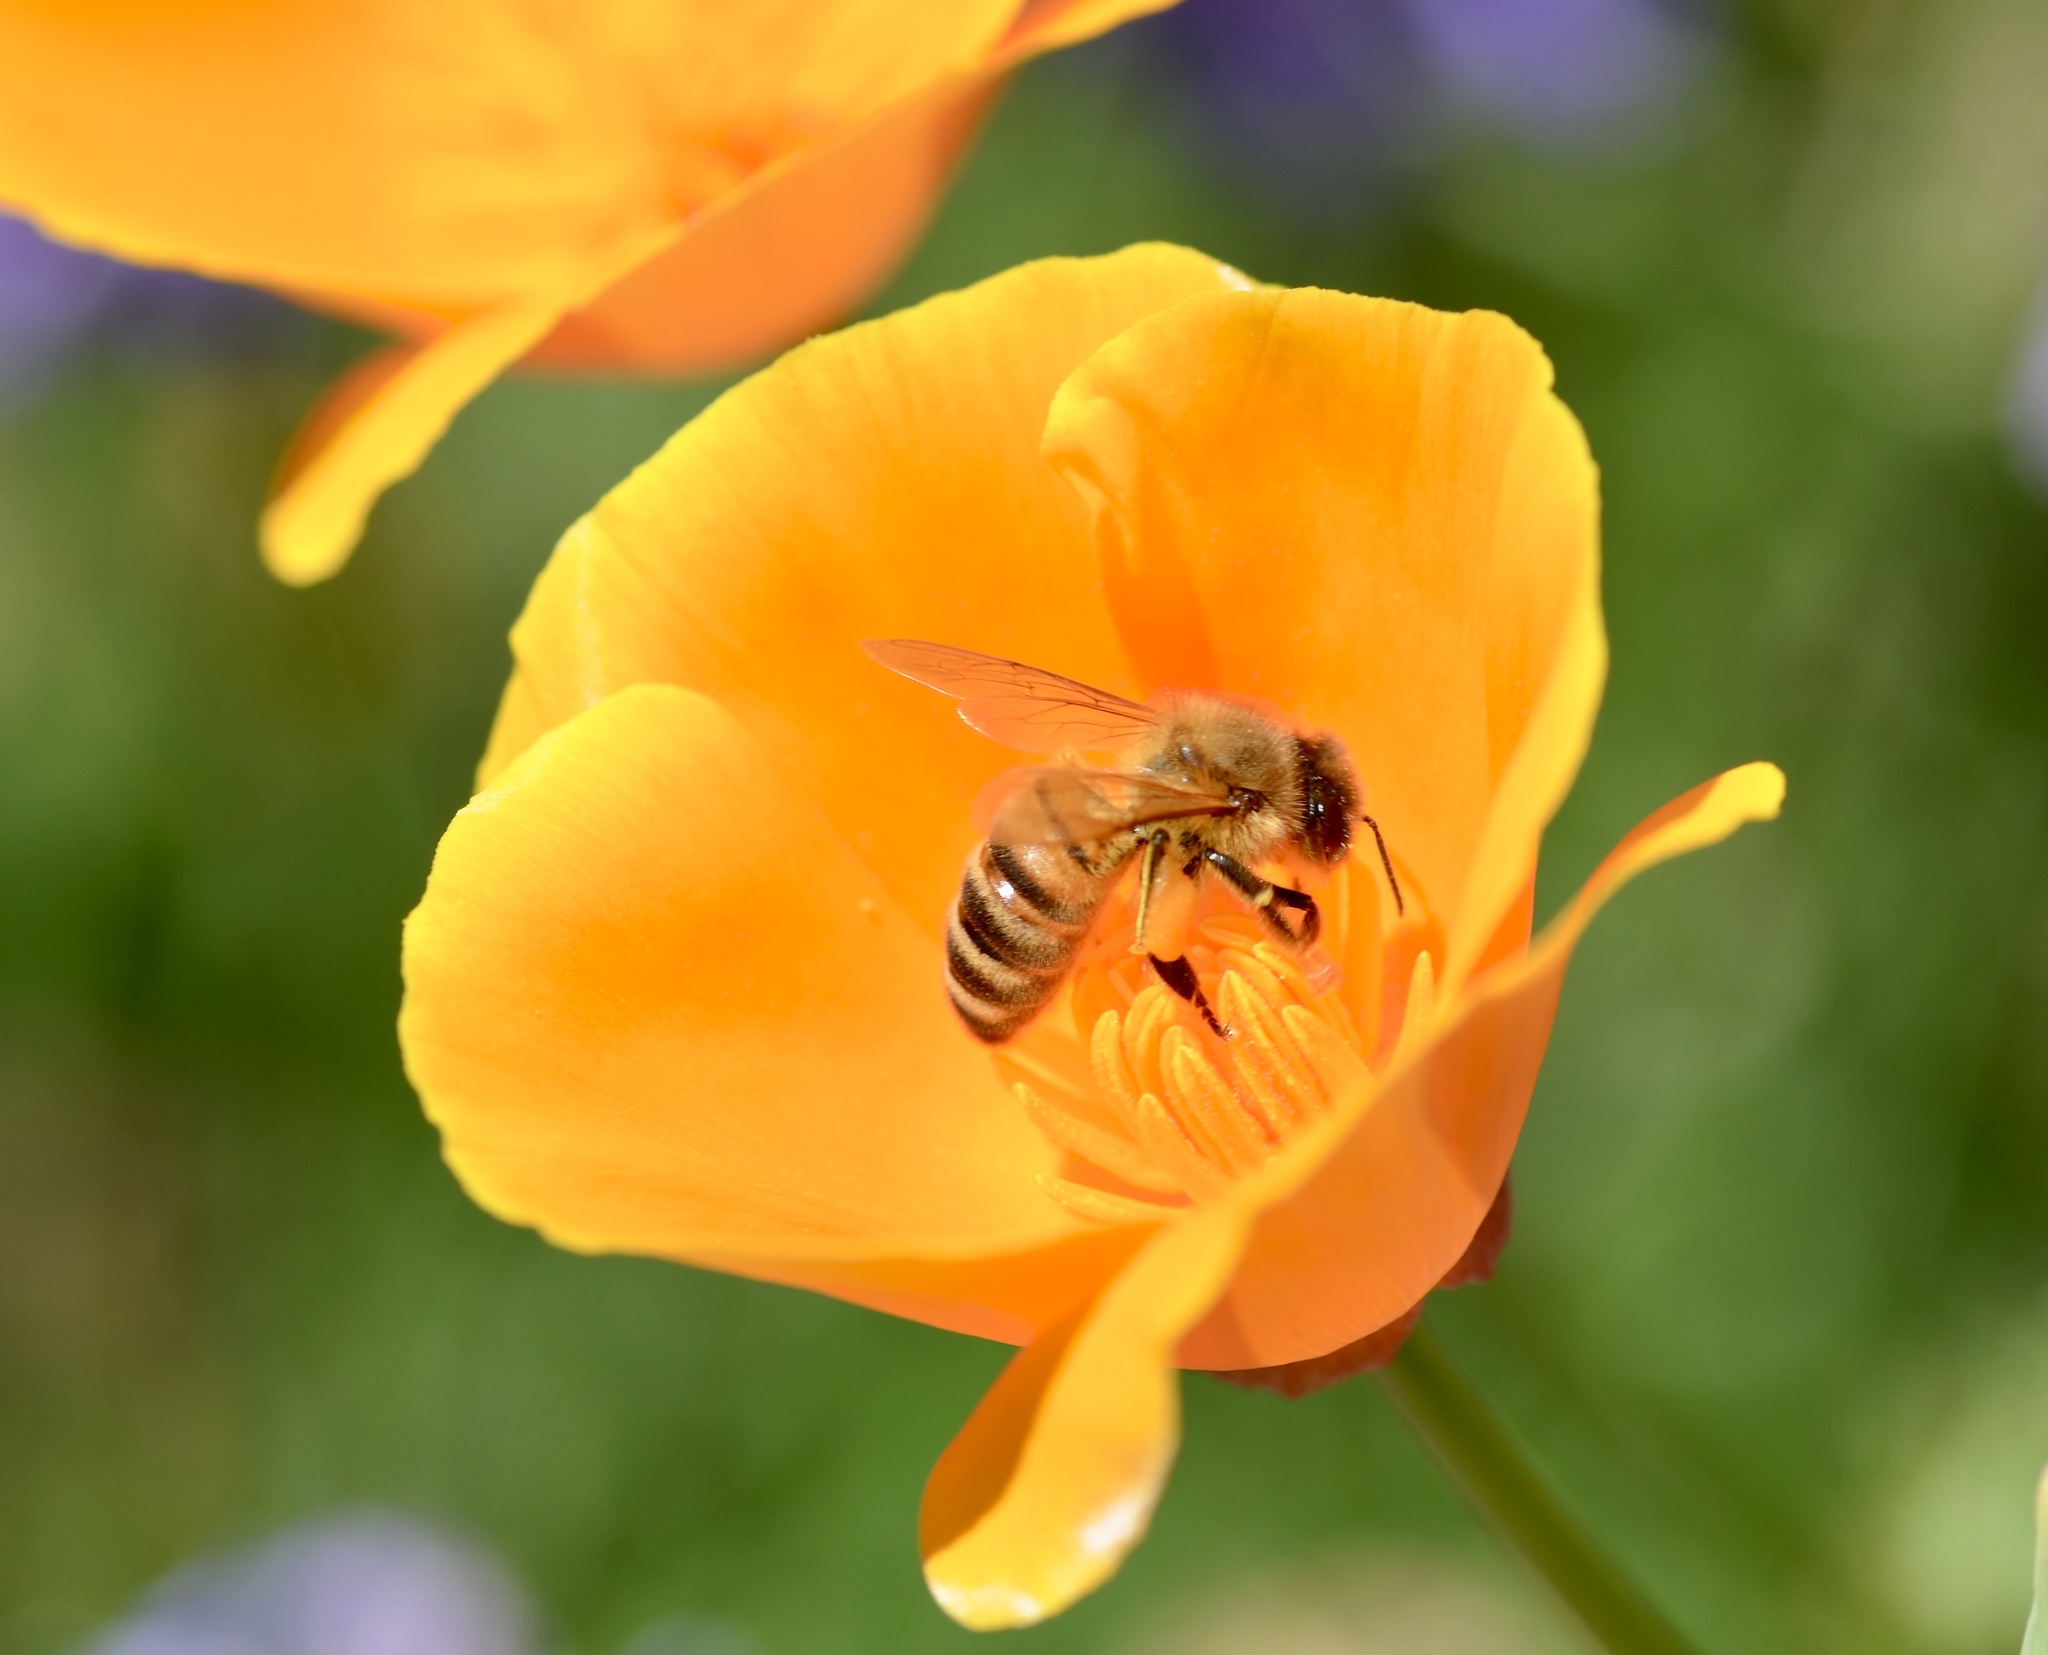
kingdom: Animalia
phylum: Arthropoda
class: Insecta
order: Hymenoptera
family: Apidae
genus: Apis
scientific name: Apis mellifera
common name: Honey bee
